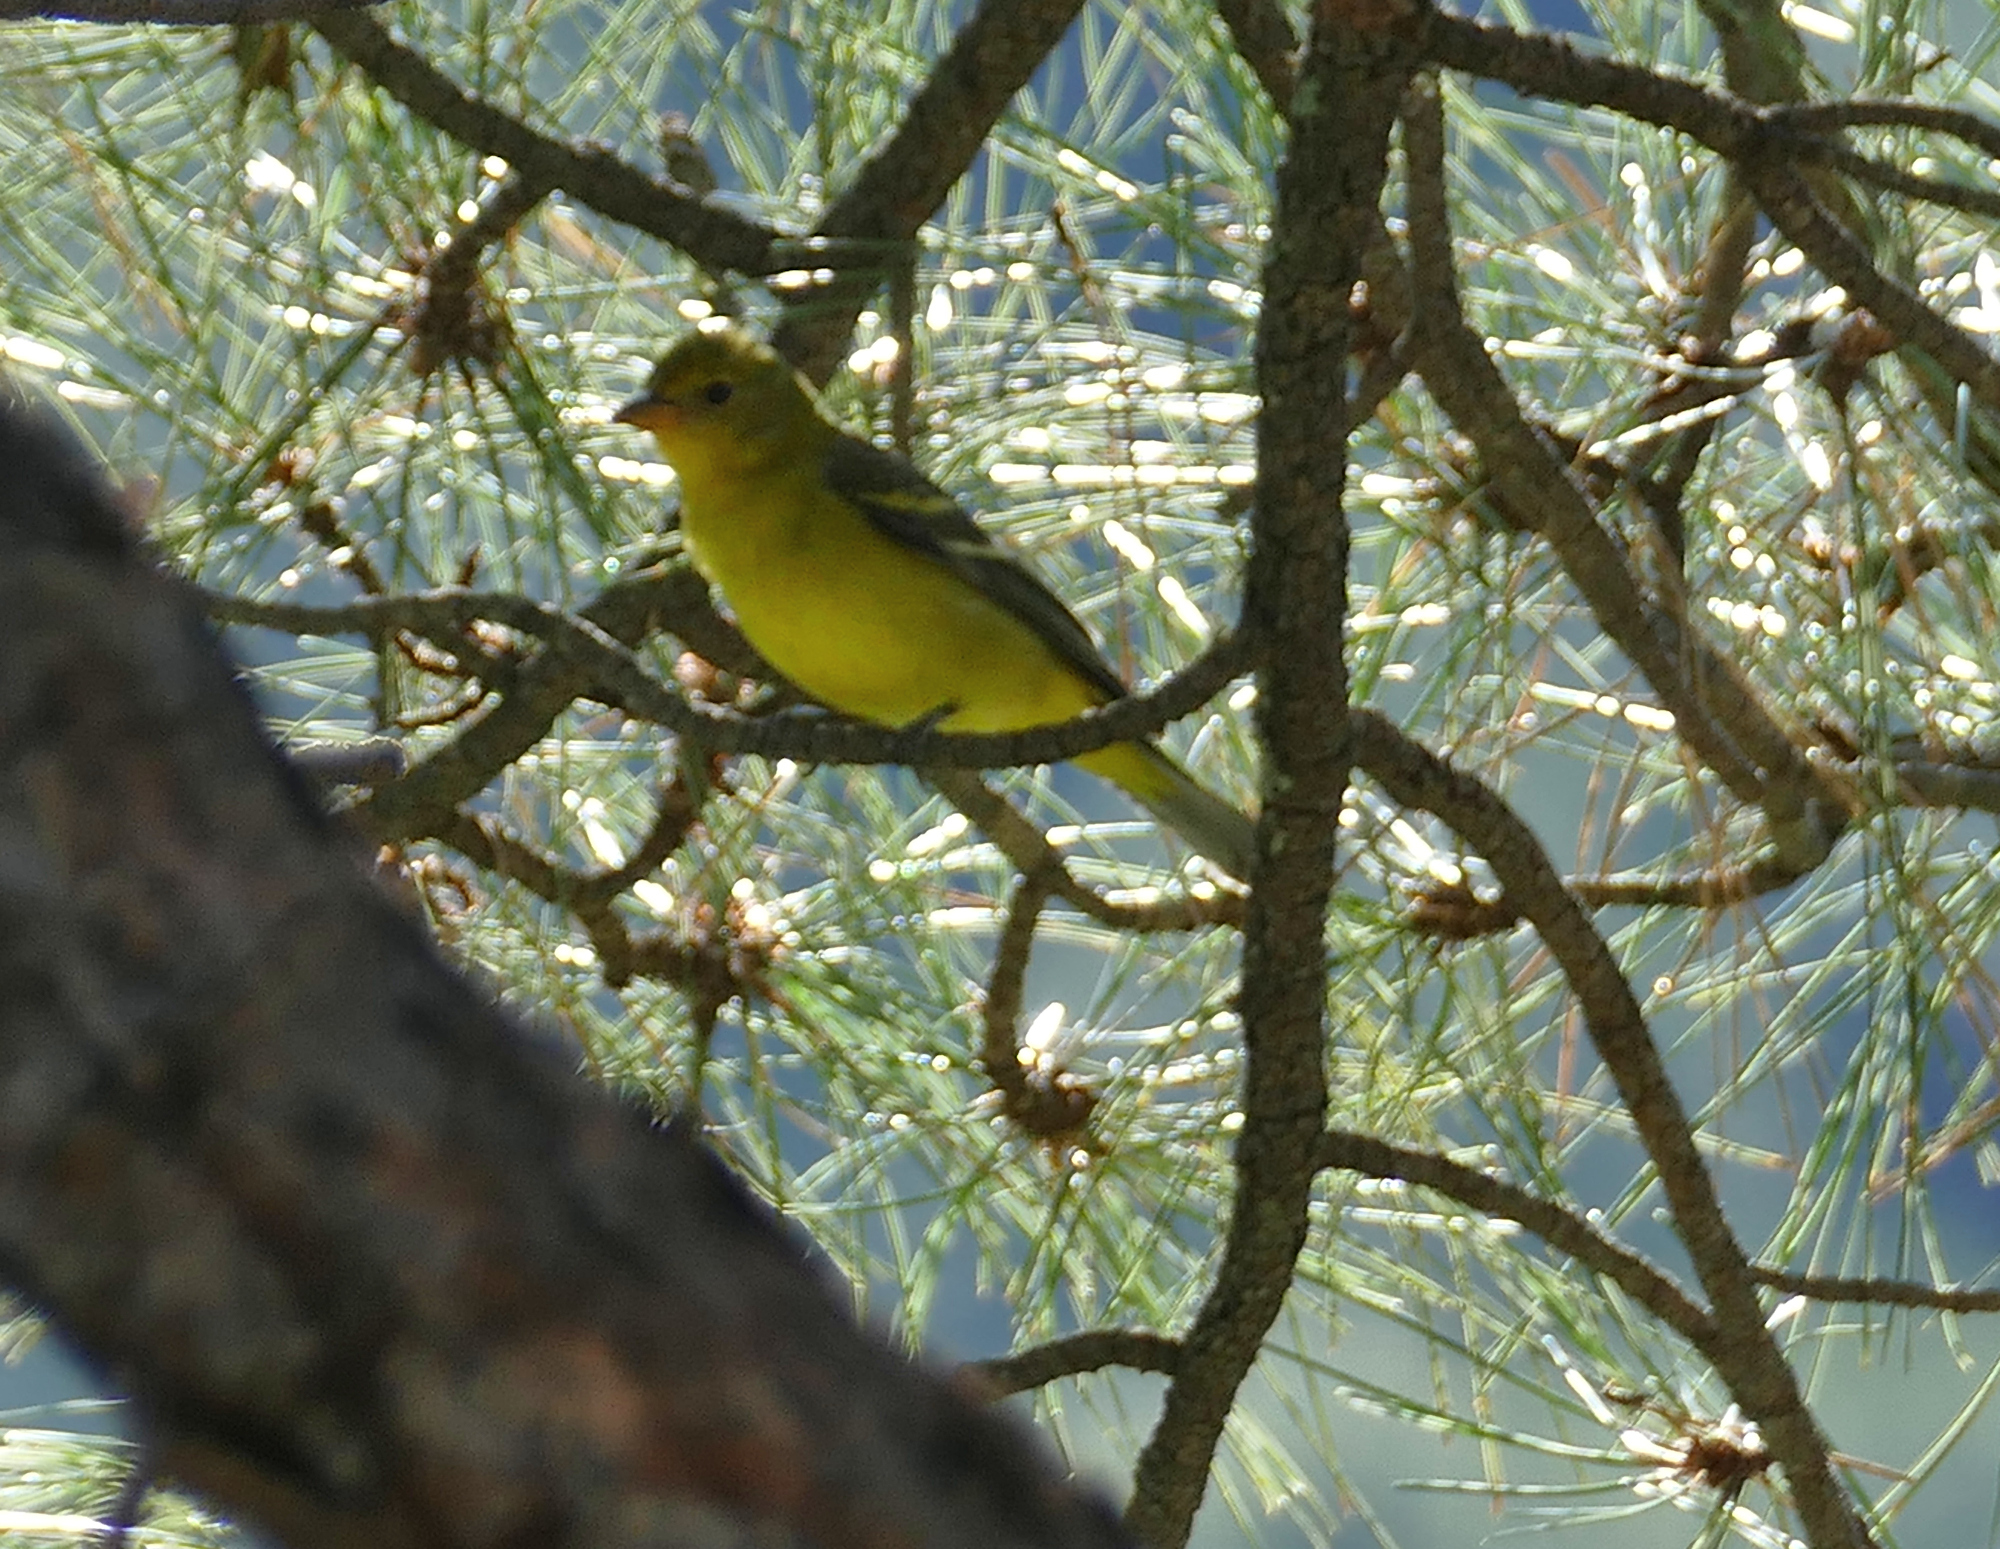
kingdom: Animalia
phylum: Chordata
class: Aves
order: Passeriformes
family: Cardinalidae
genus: Piranga
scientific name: Piranga ludoviciana
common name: Western tanager
